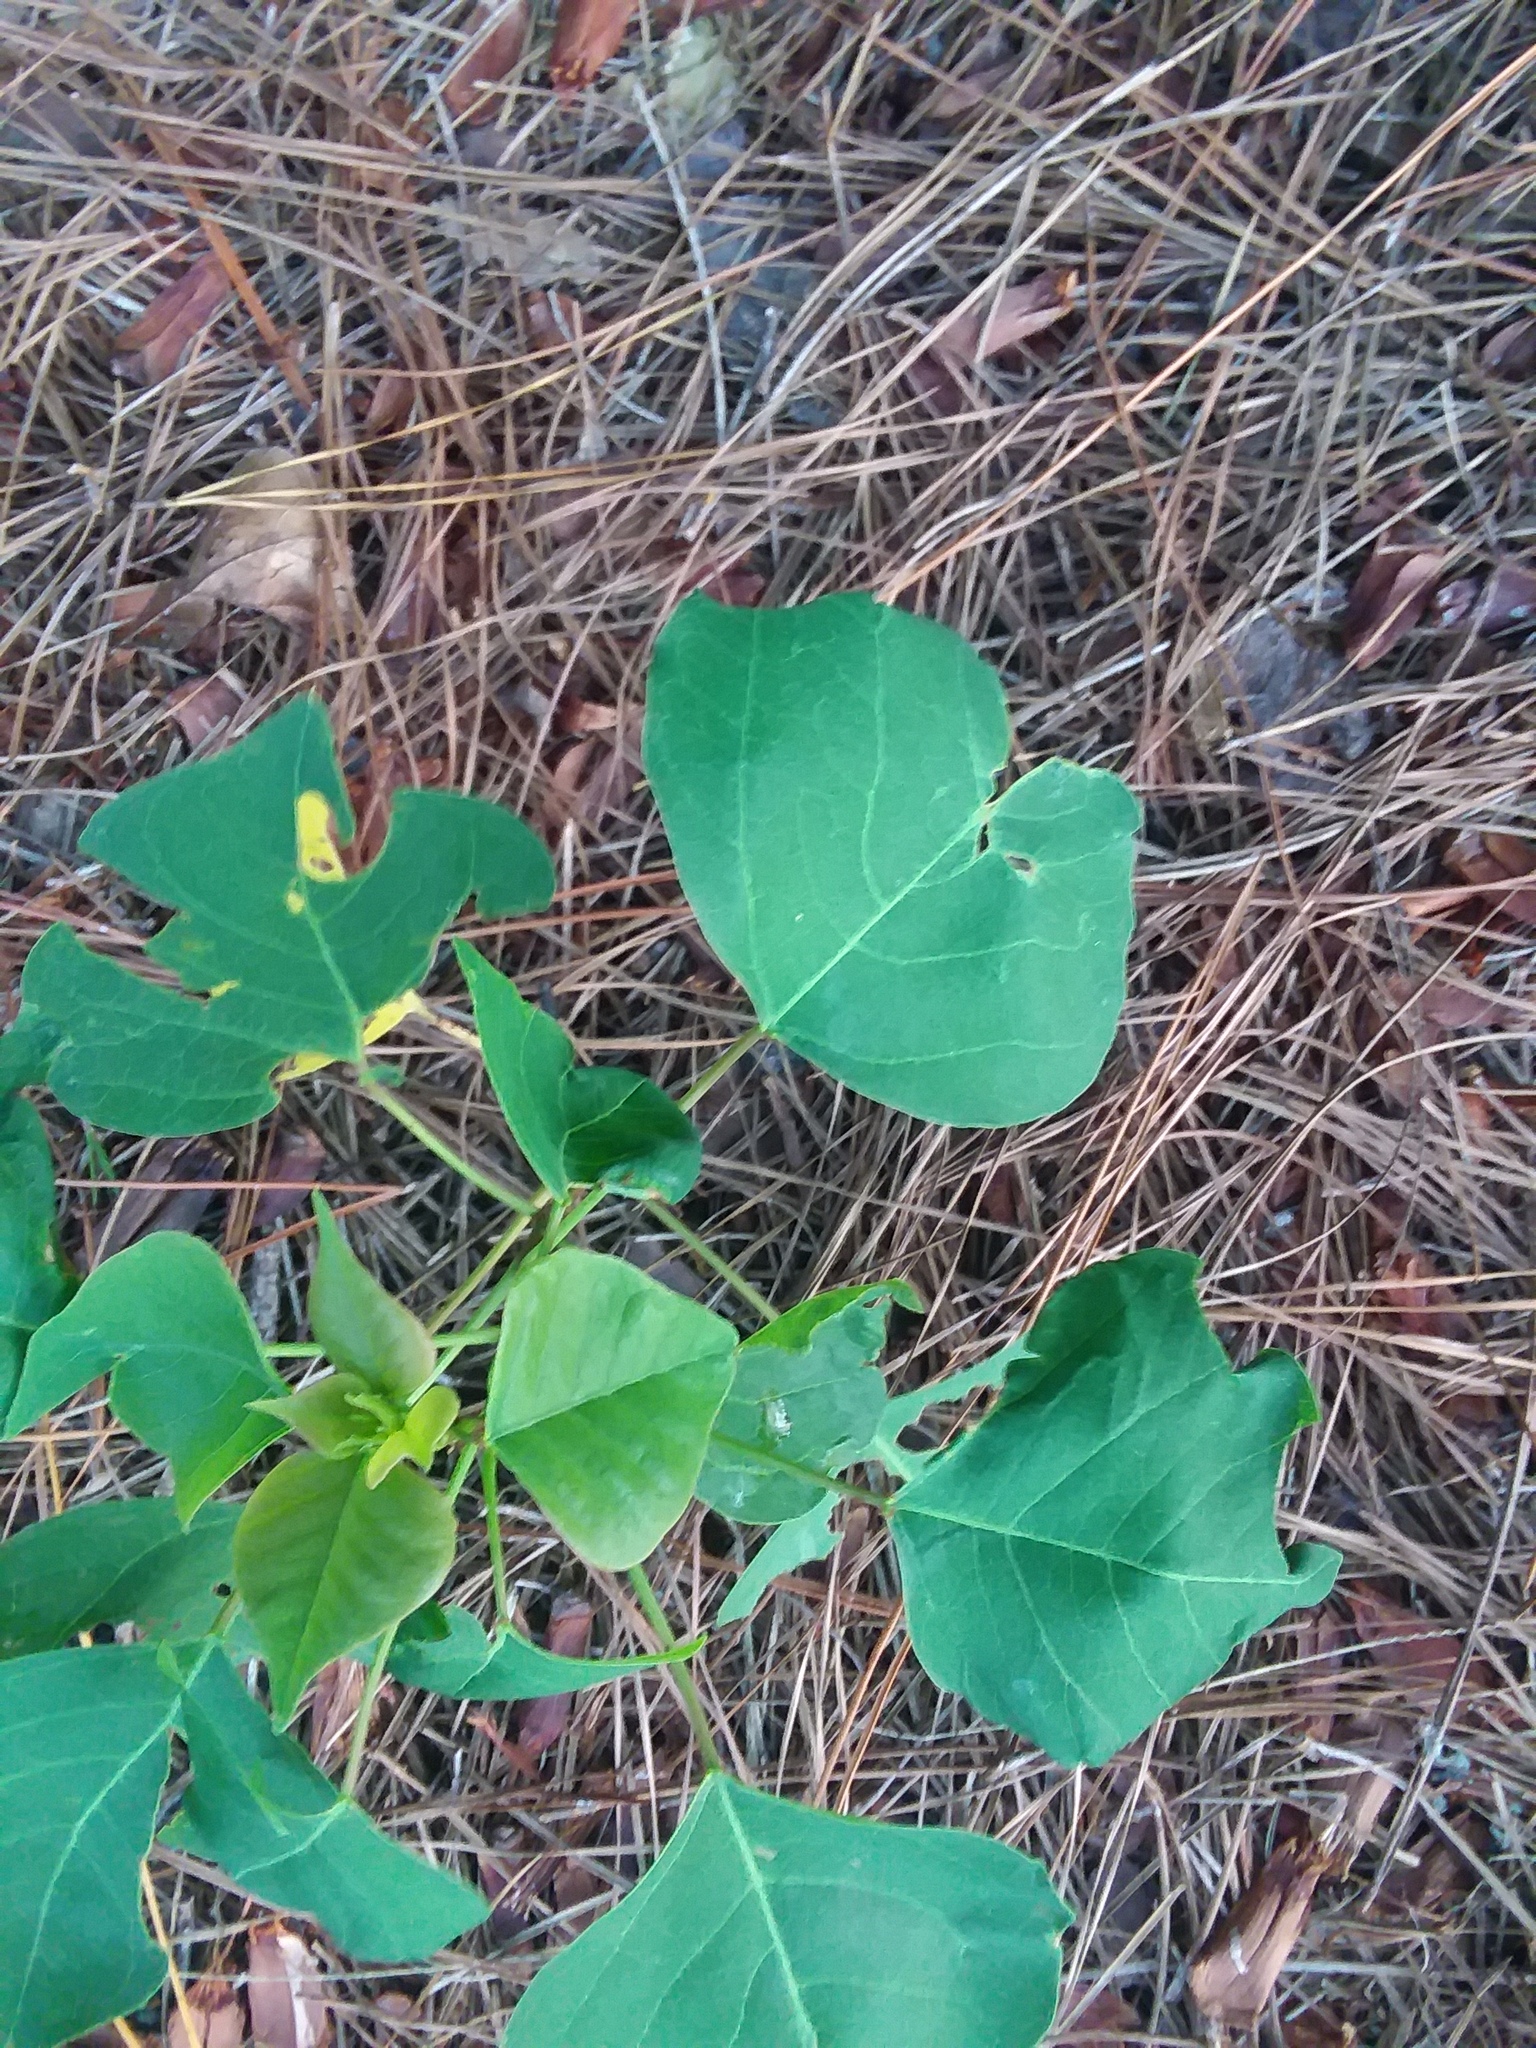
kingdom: Plantae
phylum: Tracheophyta
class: Magnoliopsida
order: Malpighiales
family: Euphorbiaceae
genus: Triadica
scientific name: Triadica sebifera
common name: Chinese tallow
